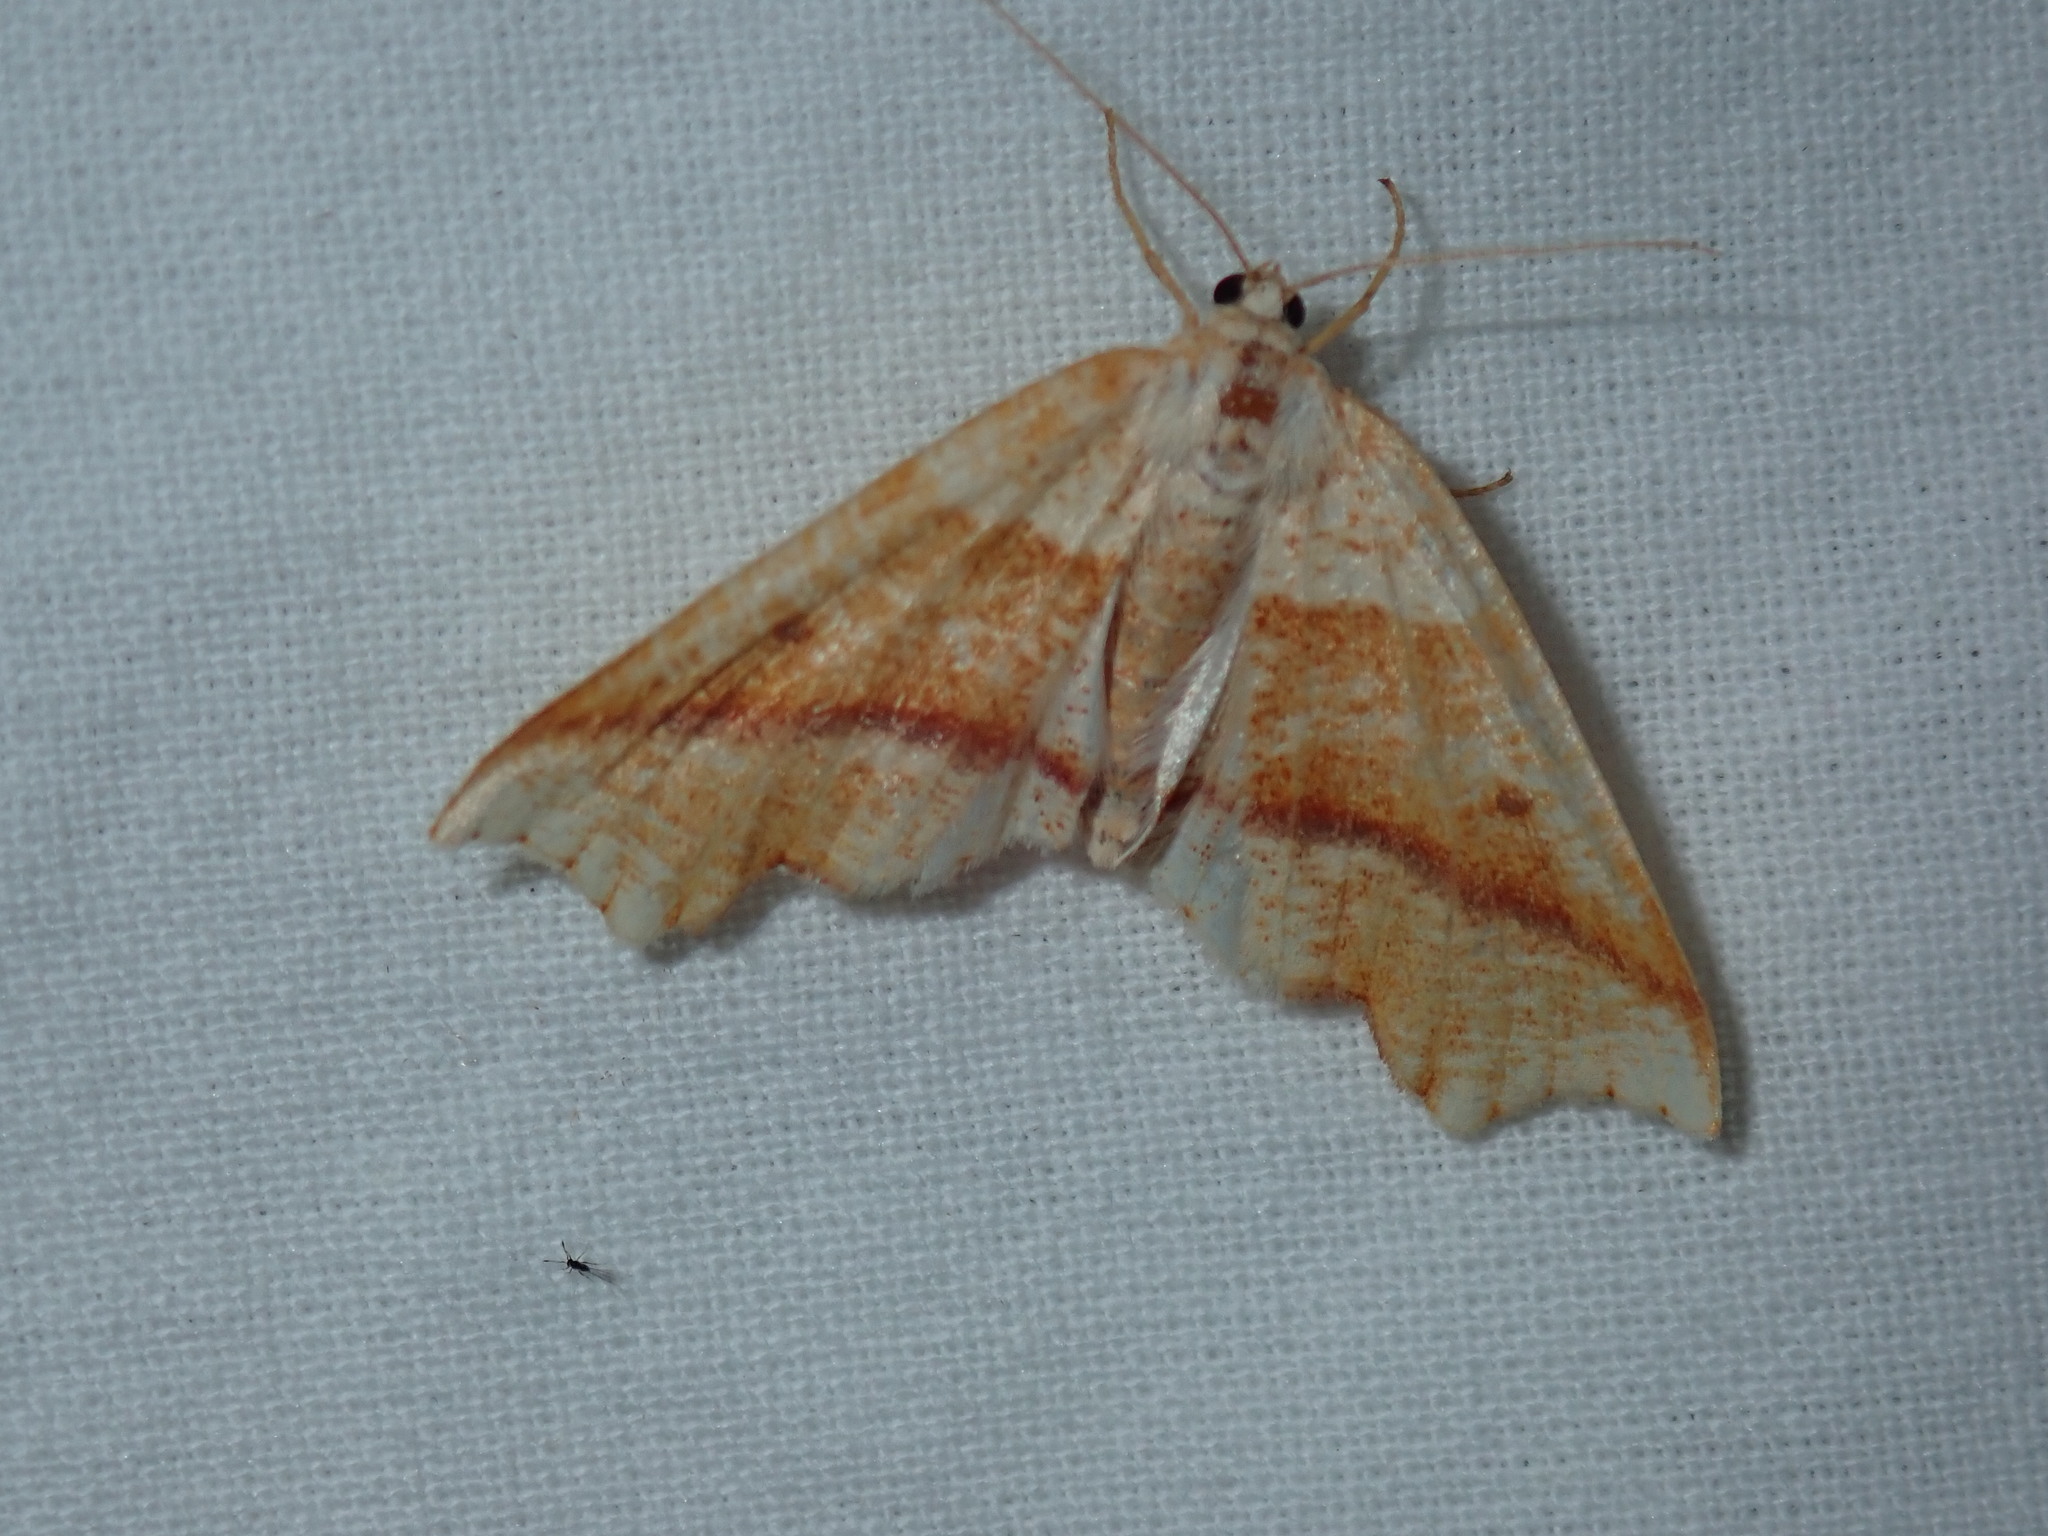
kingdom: Animalia
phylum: Arthropoda
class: Insecta
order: Lepidoptera
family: Geometridae
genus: Plagodis
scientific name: Plagodis alcoolaria
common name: Hollow-spotted plagodis
